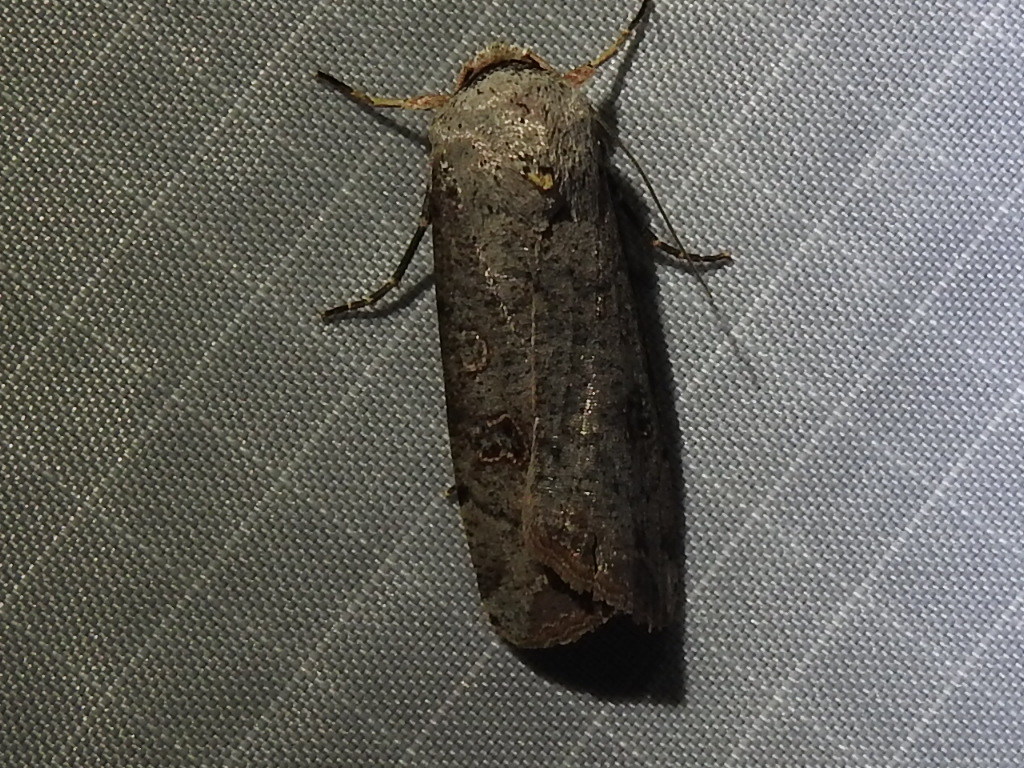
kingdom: Animalia
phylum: Arthropoda
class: Insecta
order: Lepidoptera
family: Noctuidae
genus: Anicla
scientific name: Anicla infecta
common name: Green cutworm
